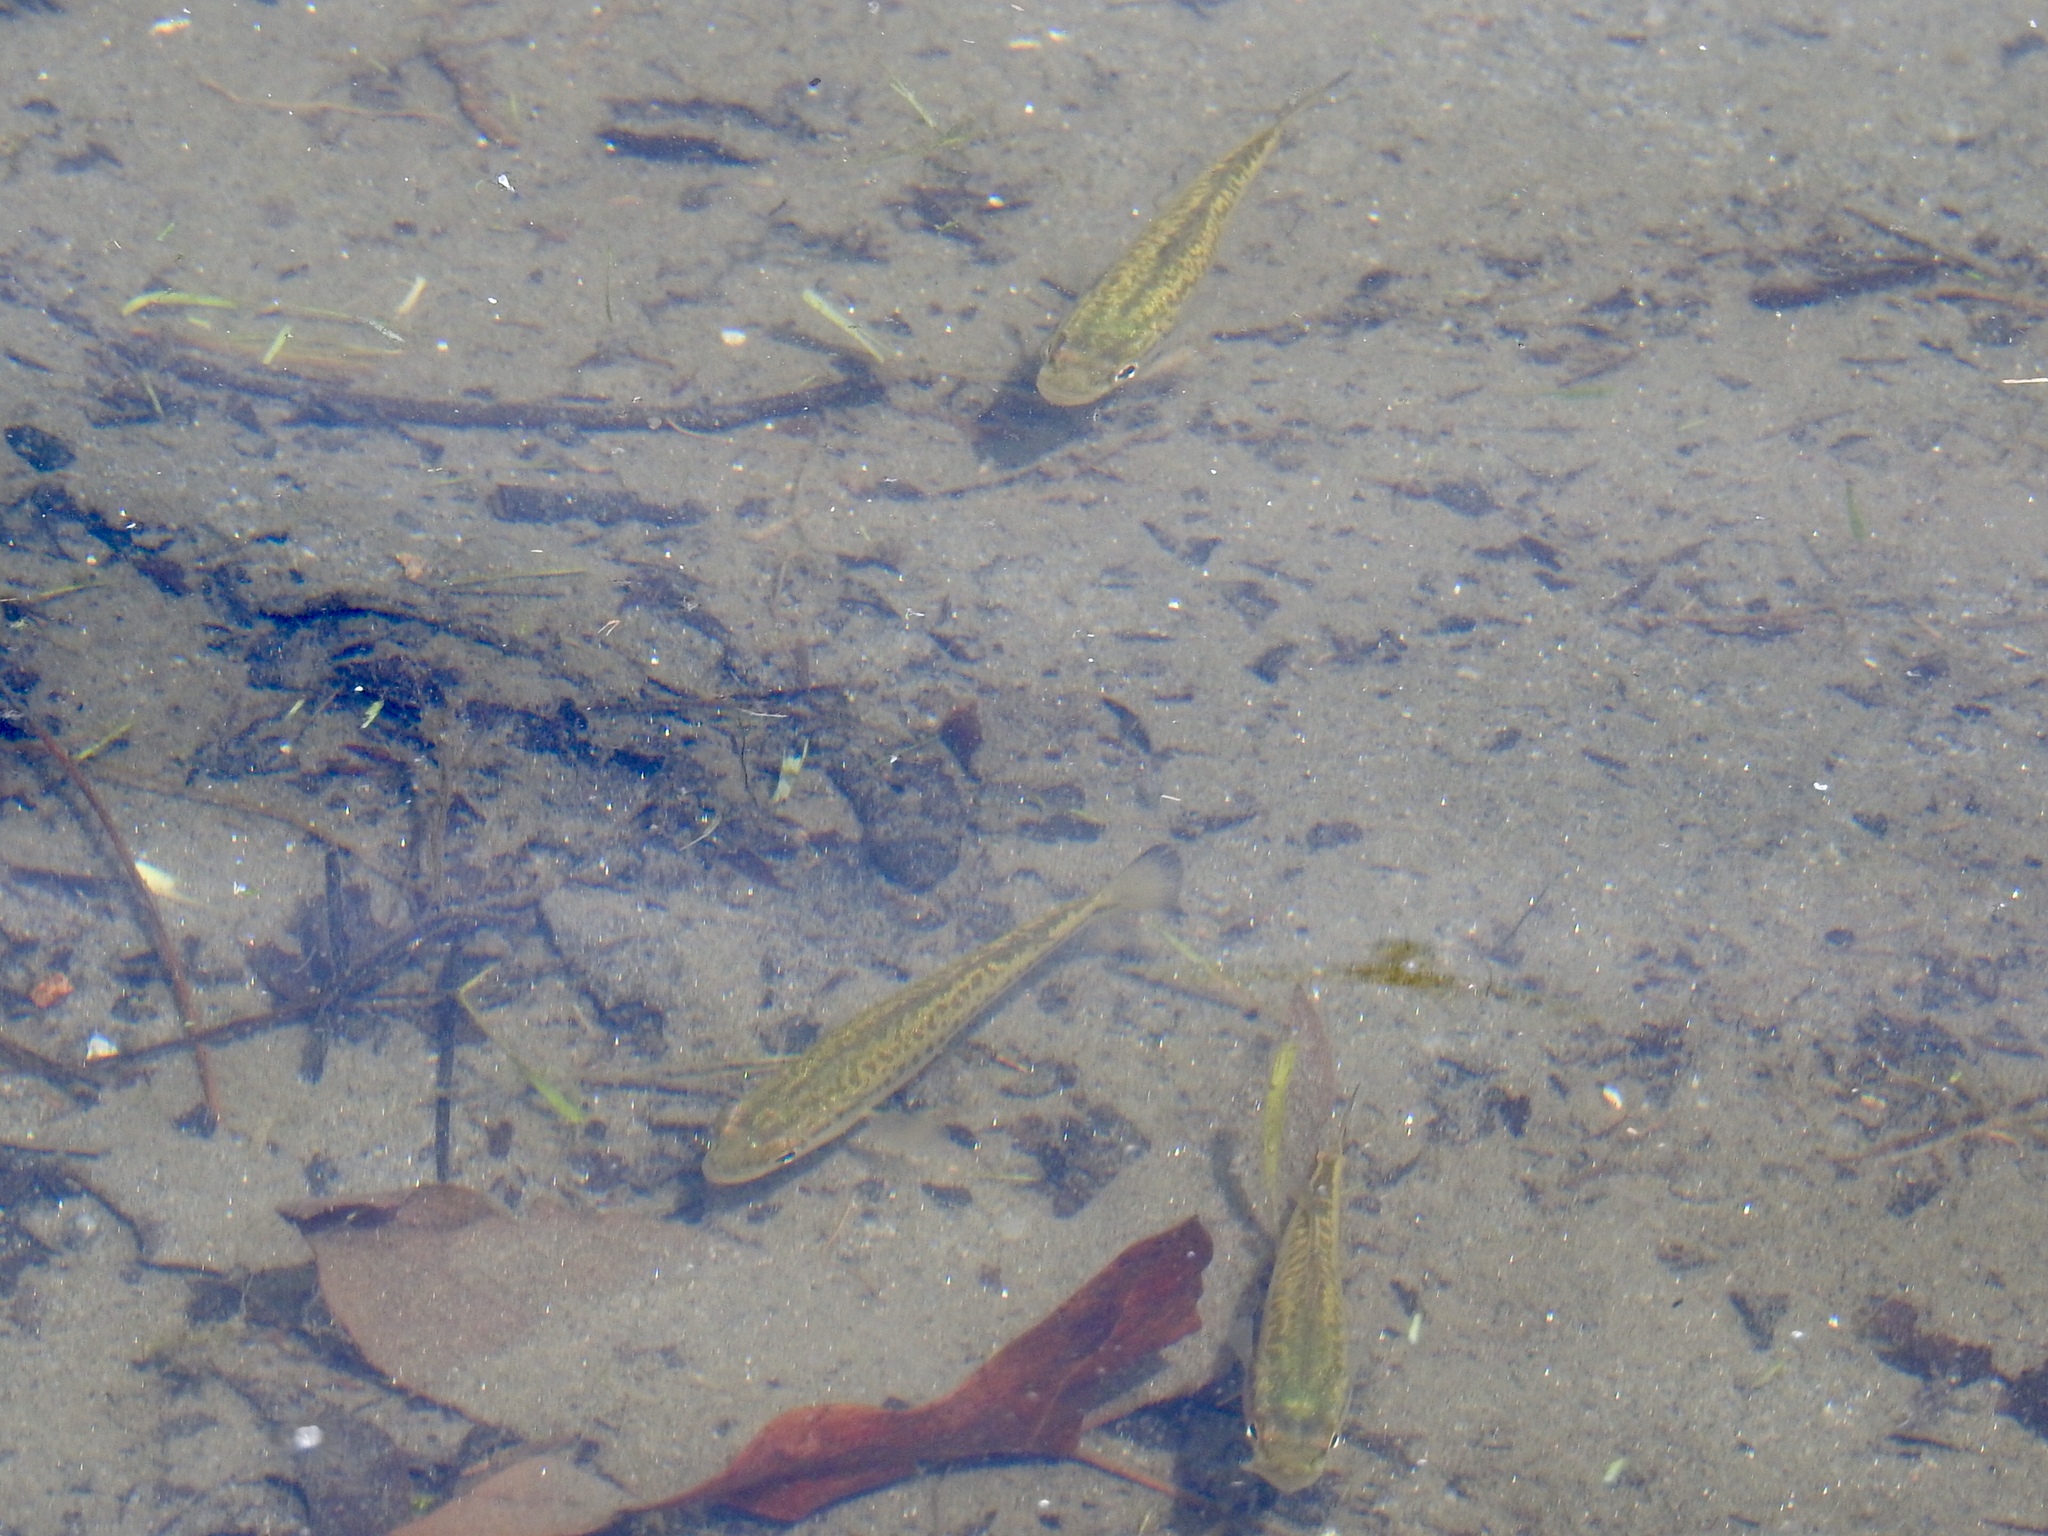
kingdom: Animalia
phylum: Chordata
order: Perciformes
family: Centrarchidae
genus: Micropterus
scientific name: Micropterus
